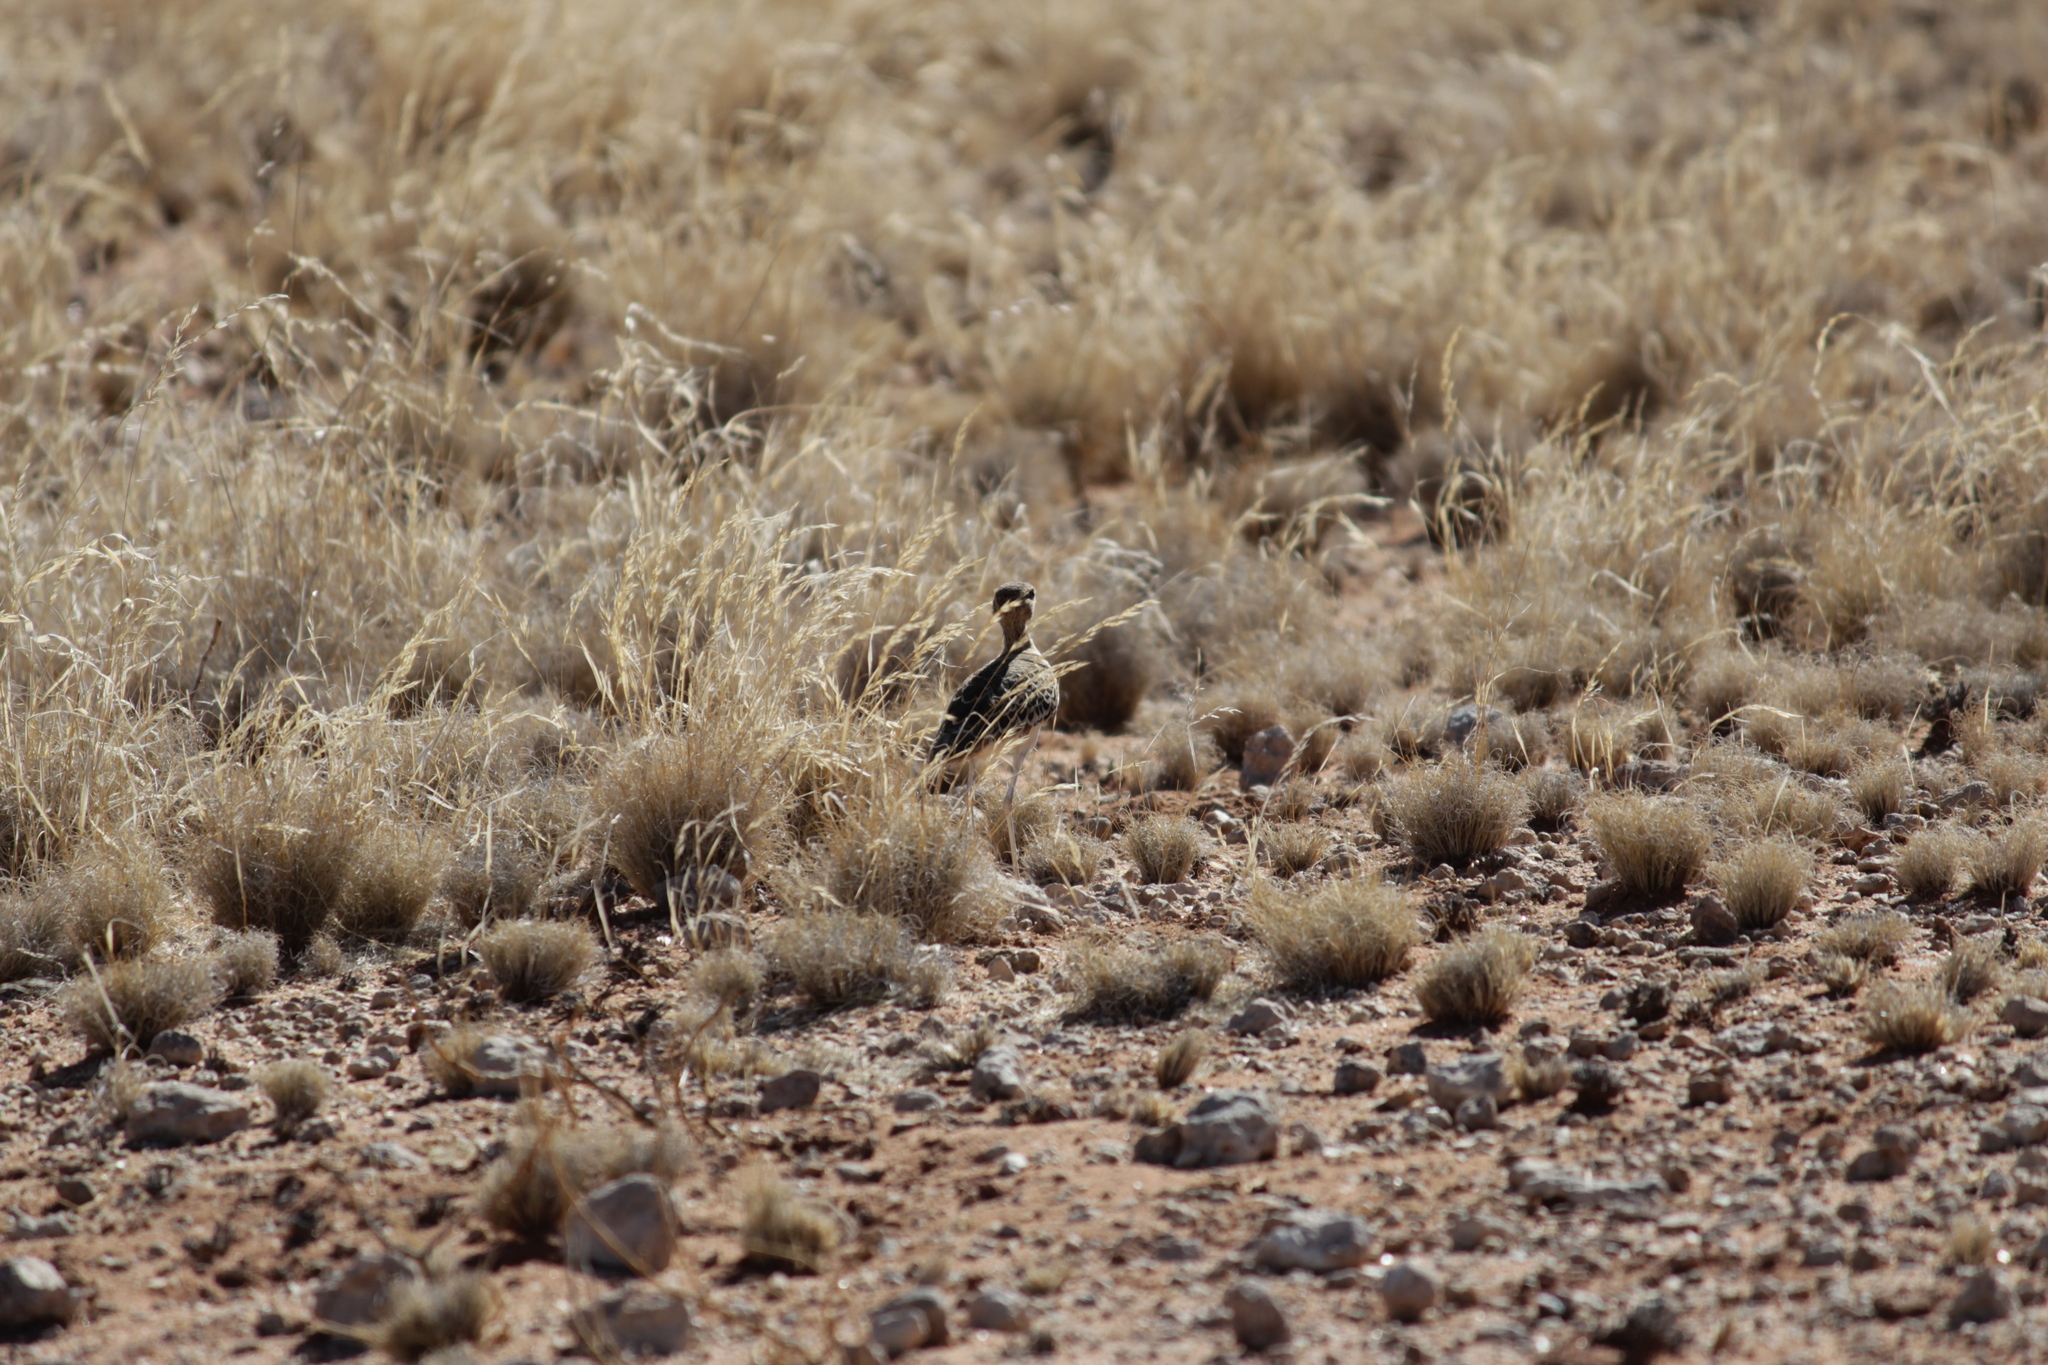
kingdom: Animalia
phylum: Chordata
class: Aves
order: Charadriiformes
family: Glareolidae
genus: Rhinoptilus
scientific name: Rhinoptilus africanus
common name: Double-banded courser
